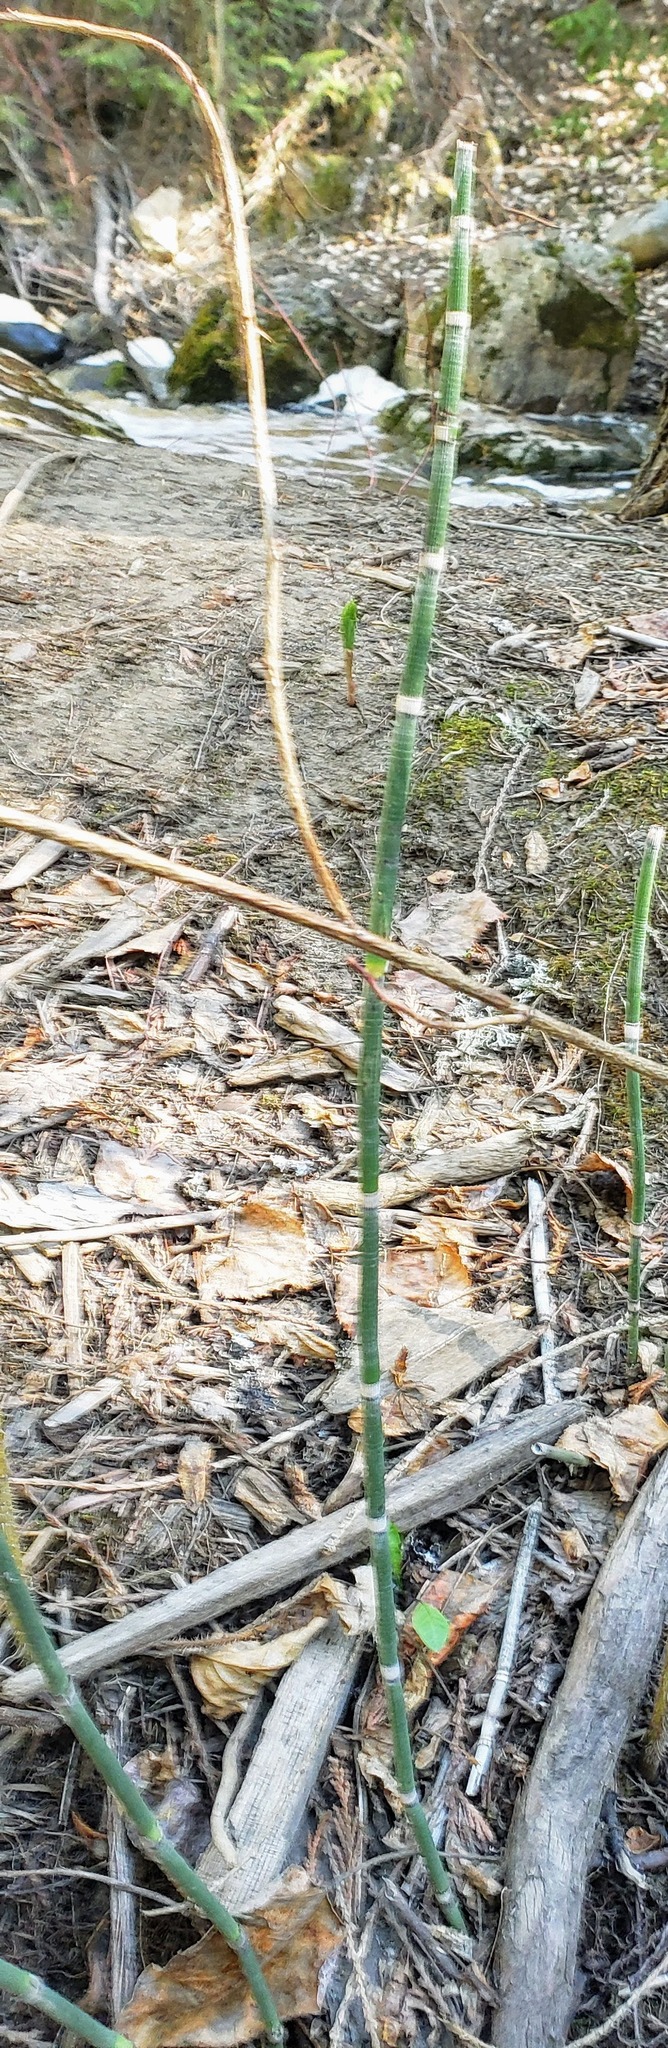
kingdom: Plantae
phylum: Tracheophyta
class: Polypodiopsida
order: Equisetales
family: Equisetaceae
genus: Equisetum
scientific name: Equisetum hyemale
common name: Rough horsetail
